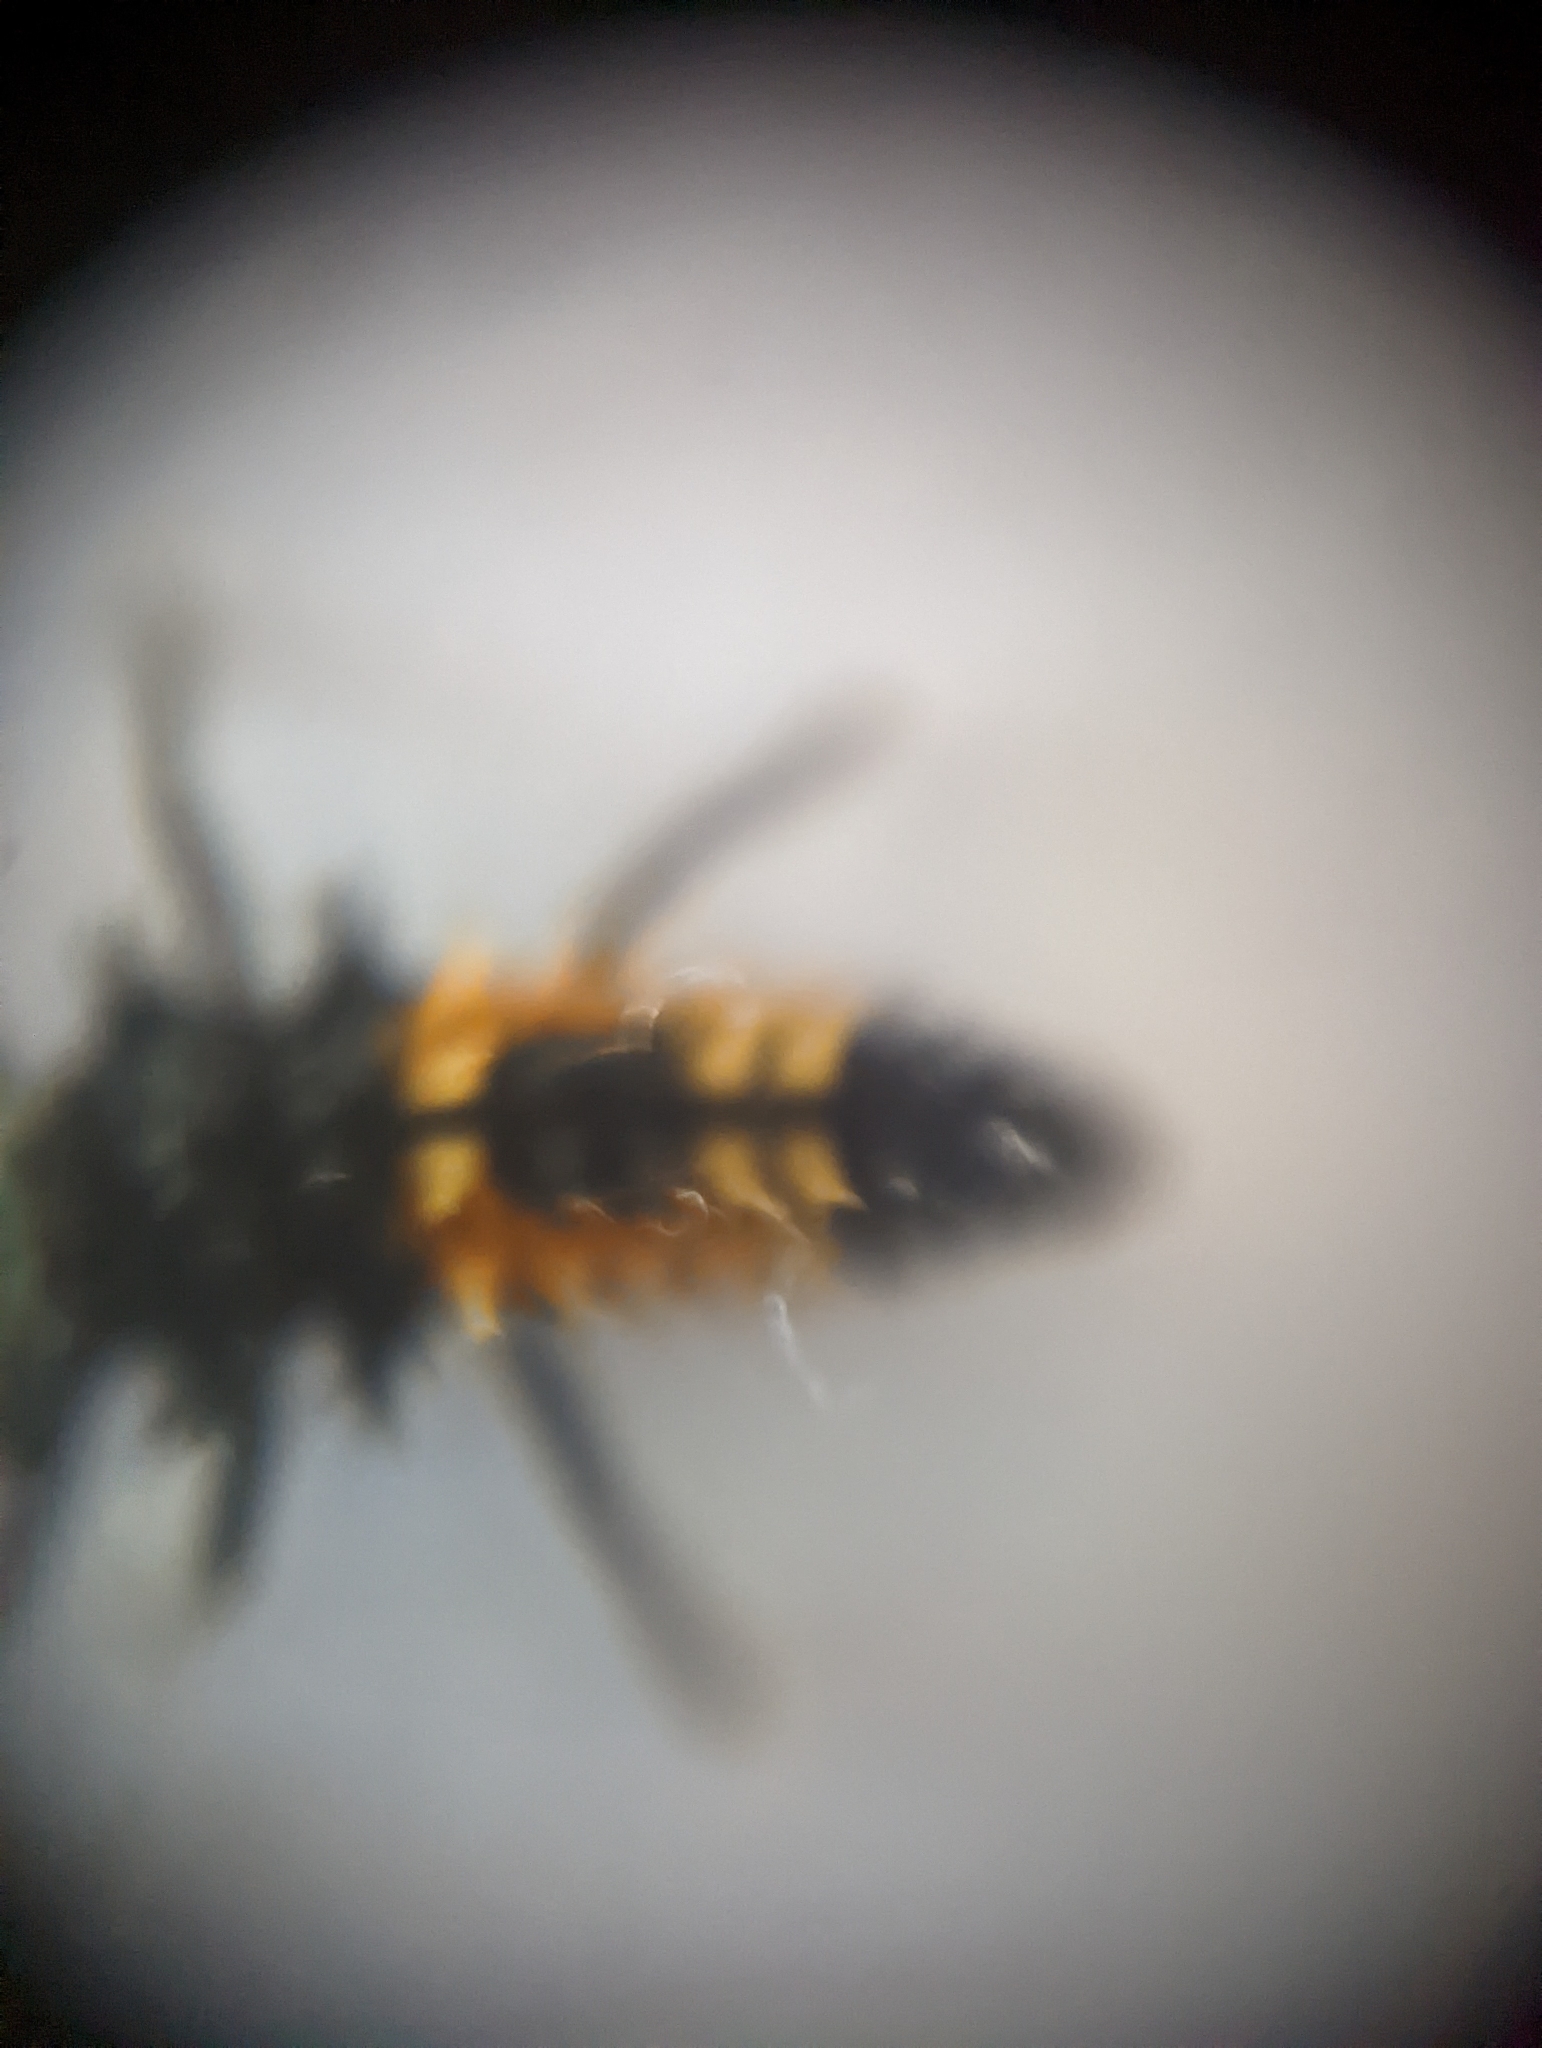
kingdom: Animalia
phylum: Arthropoda
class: Insecta
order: Coleoptera
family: Coccinellidae
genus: Harmonia
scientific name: Harmonia axyridis
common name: Harlequin ladybird
